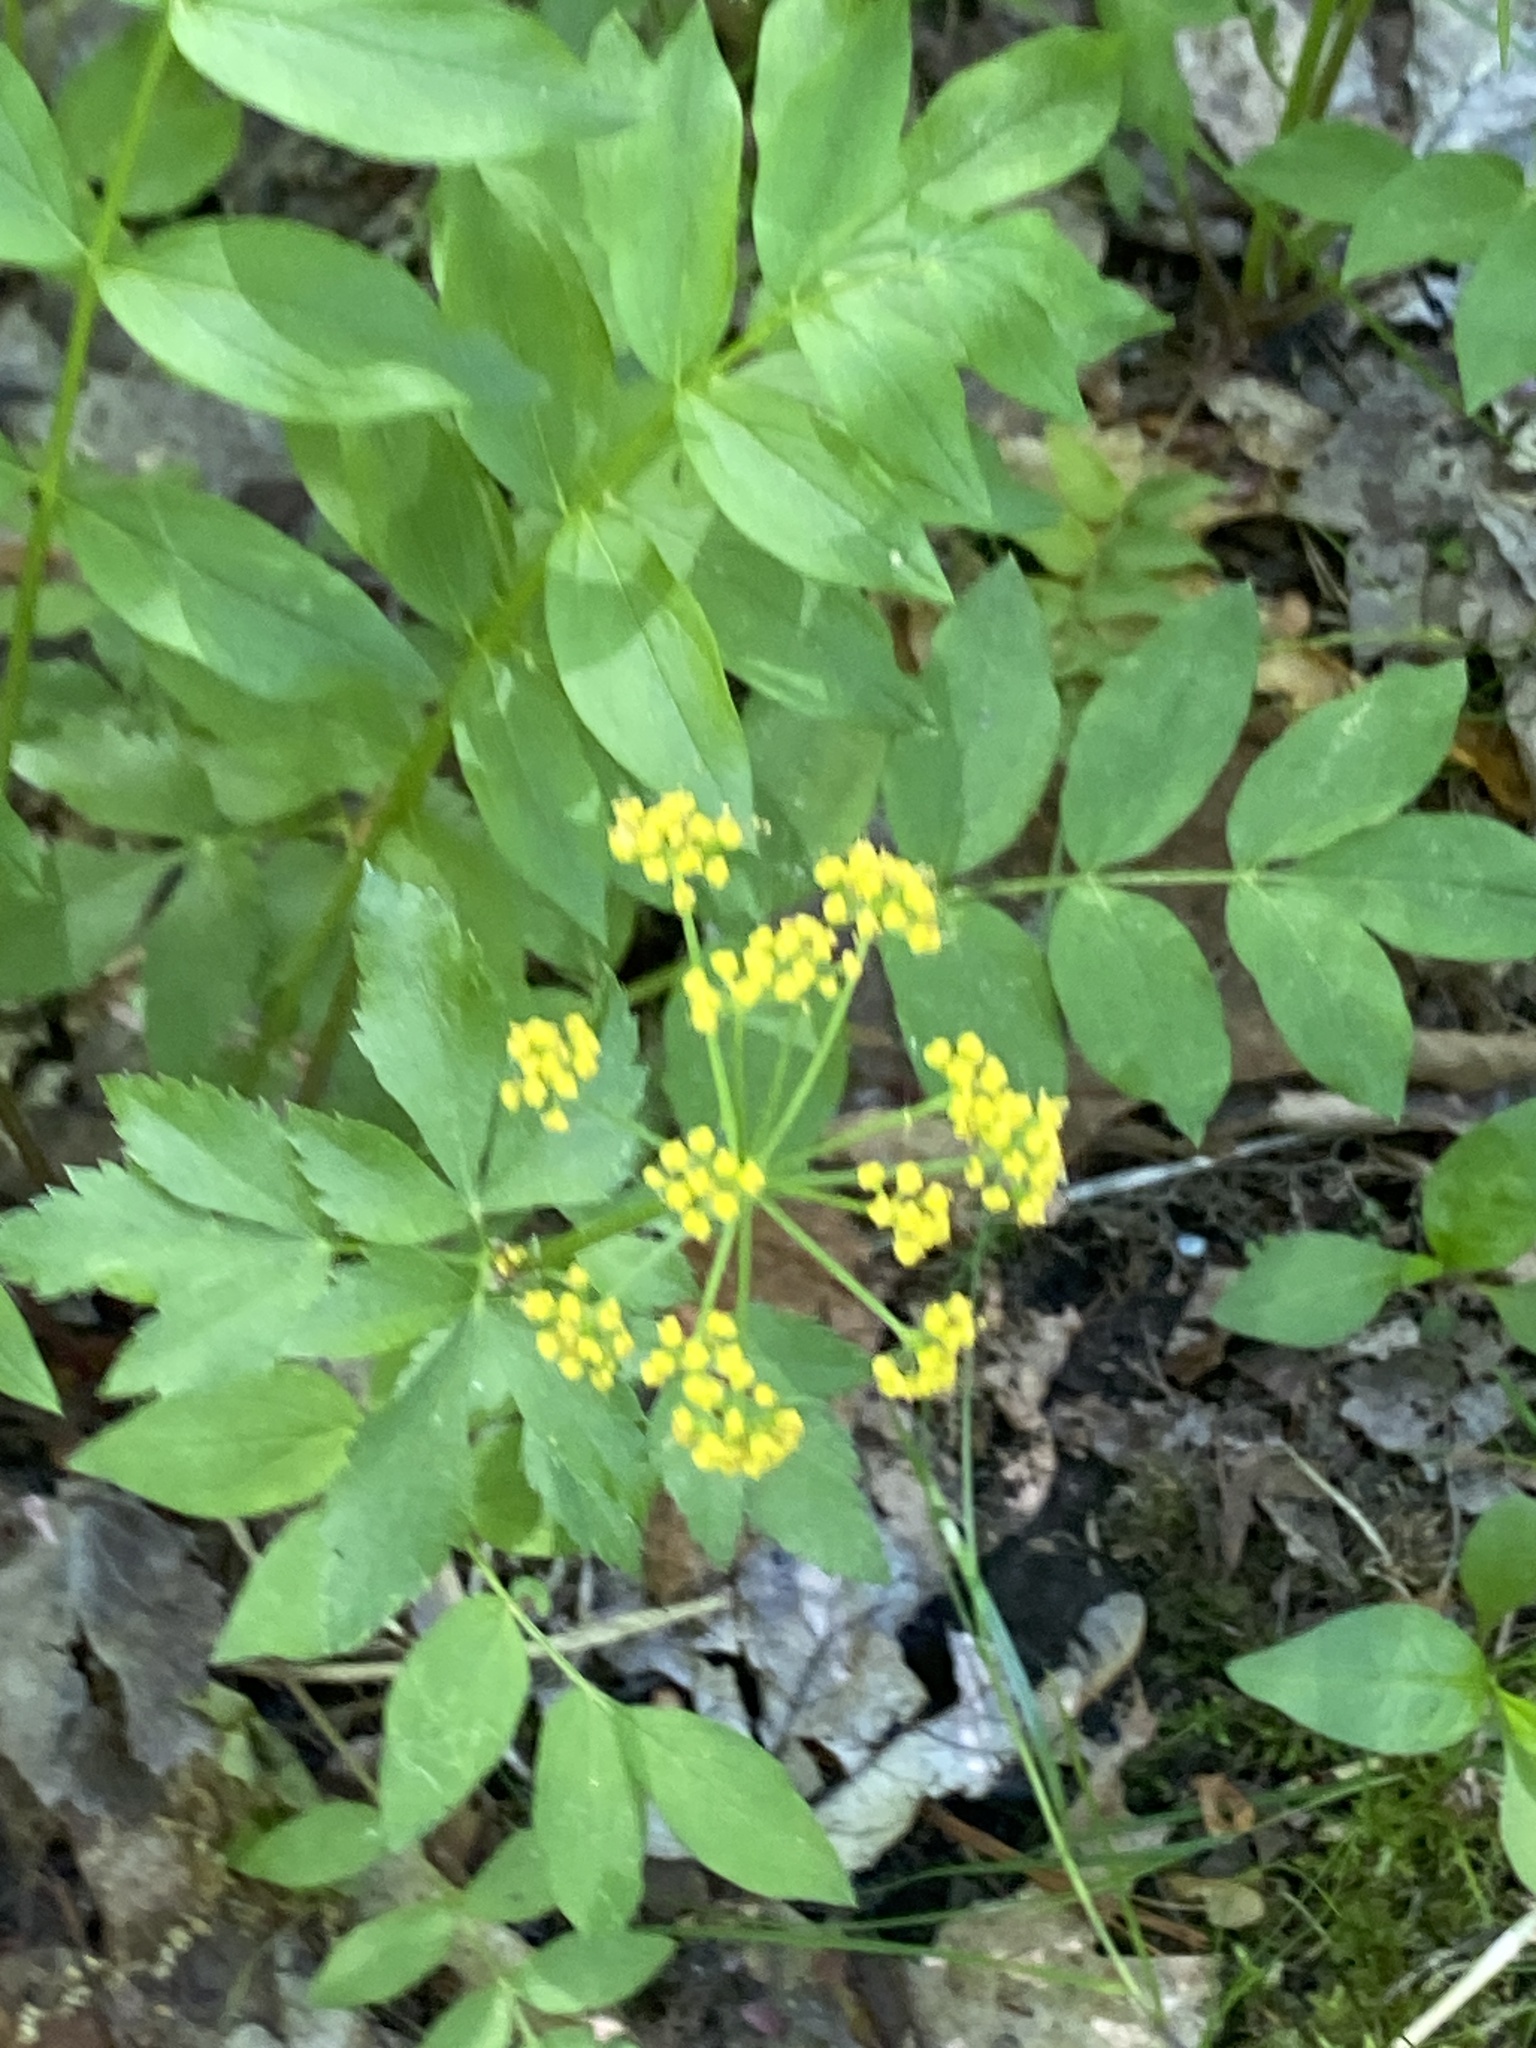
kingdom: Plantae
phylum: Tracheophyta
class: Magnoliopsida
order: Apiales
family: Apiaceae
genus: Zizia
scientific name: Zizia aurea
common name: Golden alexanders
